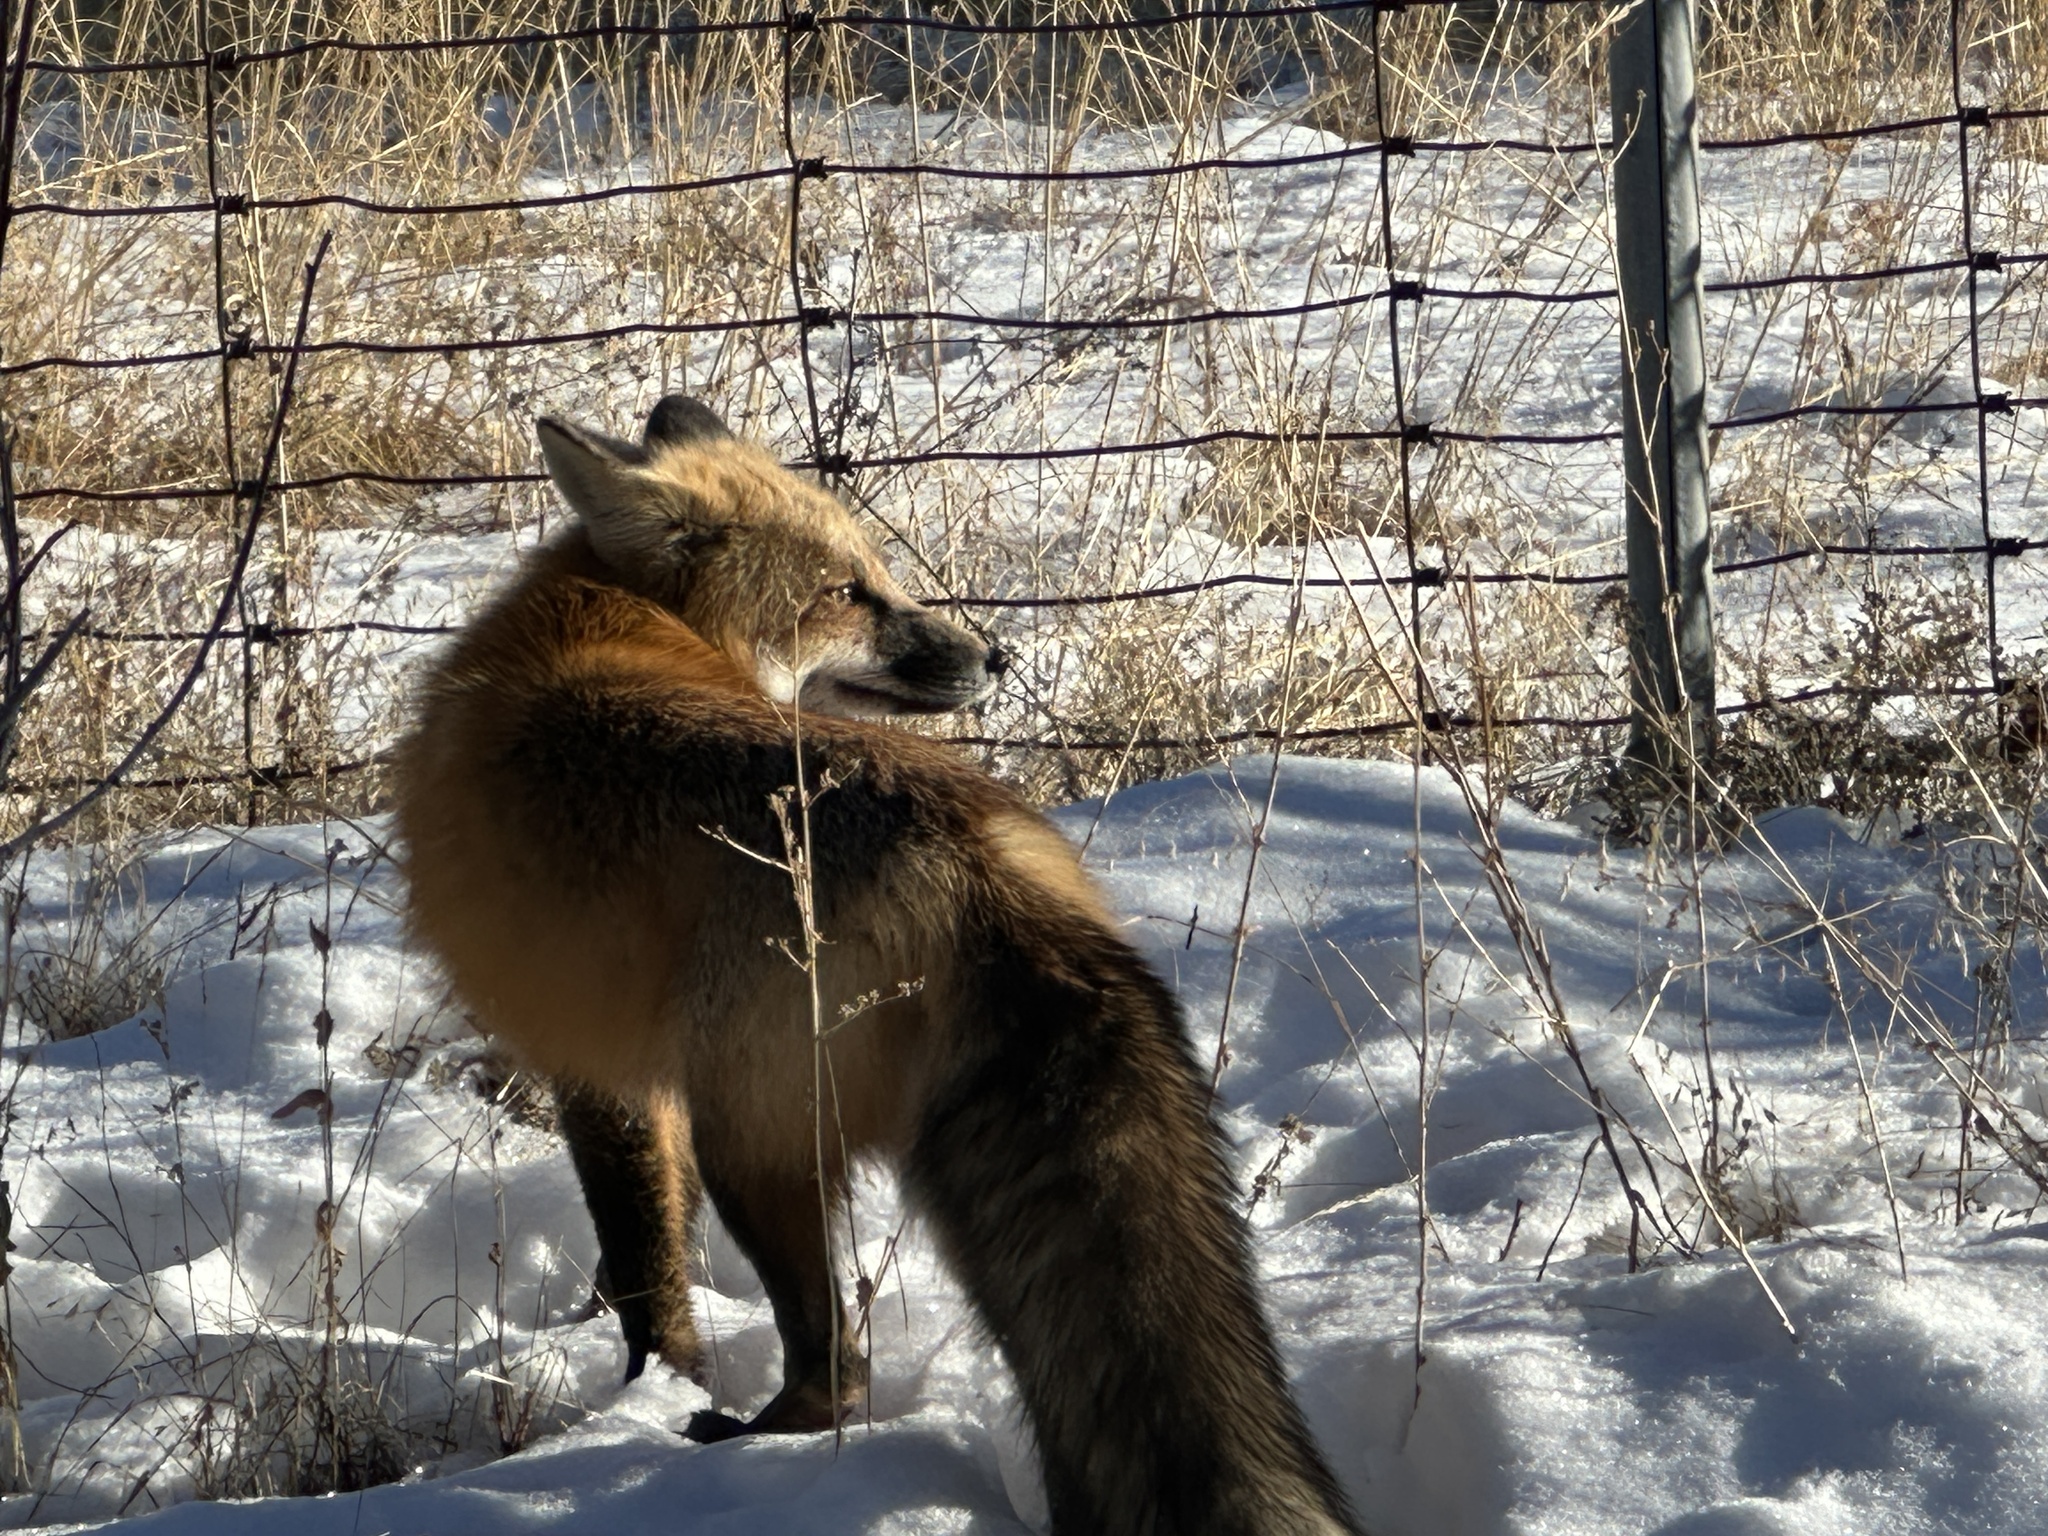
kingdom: Animalia
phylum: Chordata
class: Mammalia
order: Carnivora
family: Canidae
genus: Vulpes
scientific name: Vulpes vulpes
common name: Red fox
